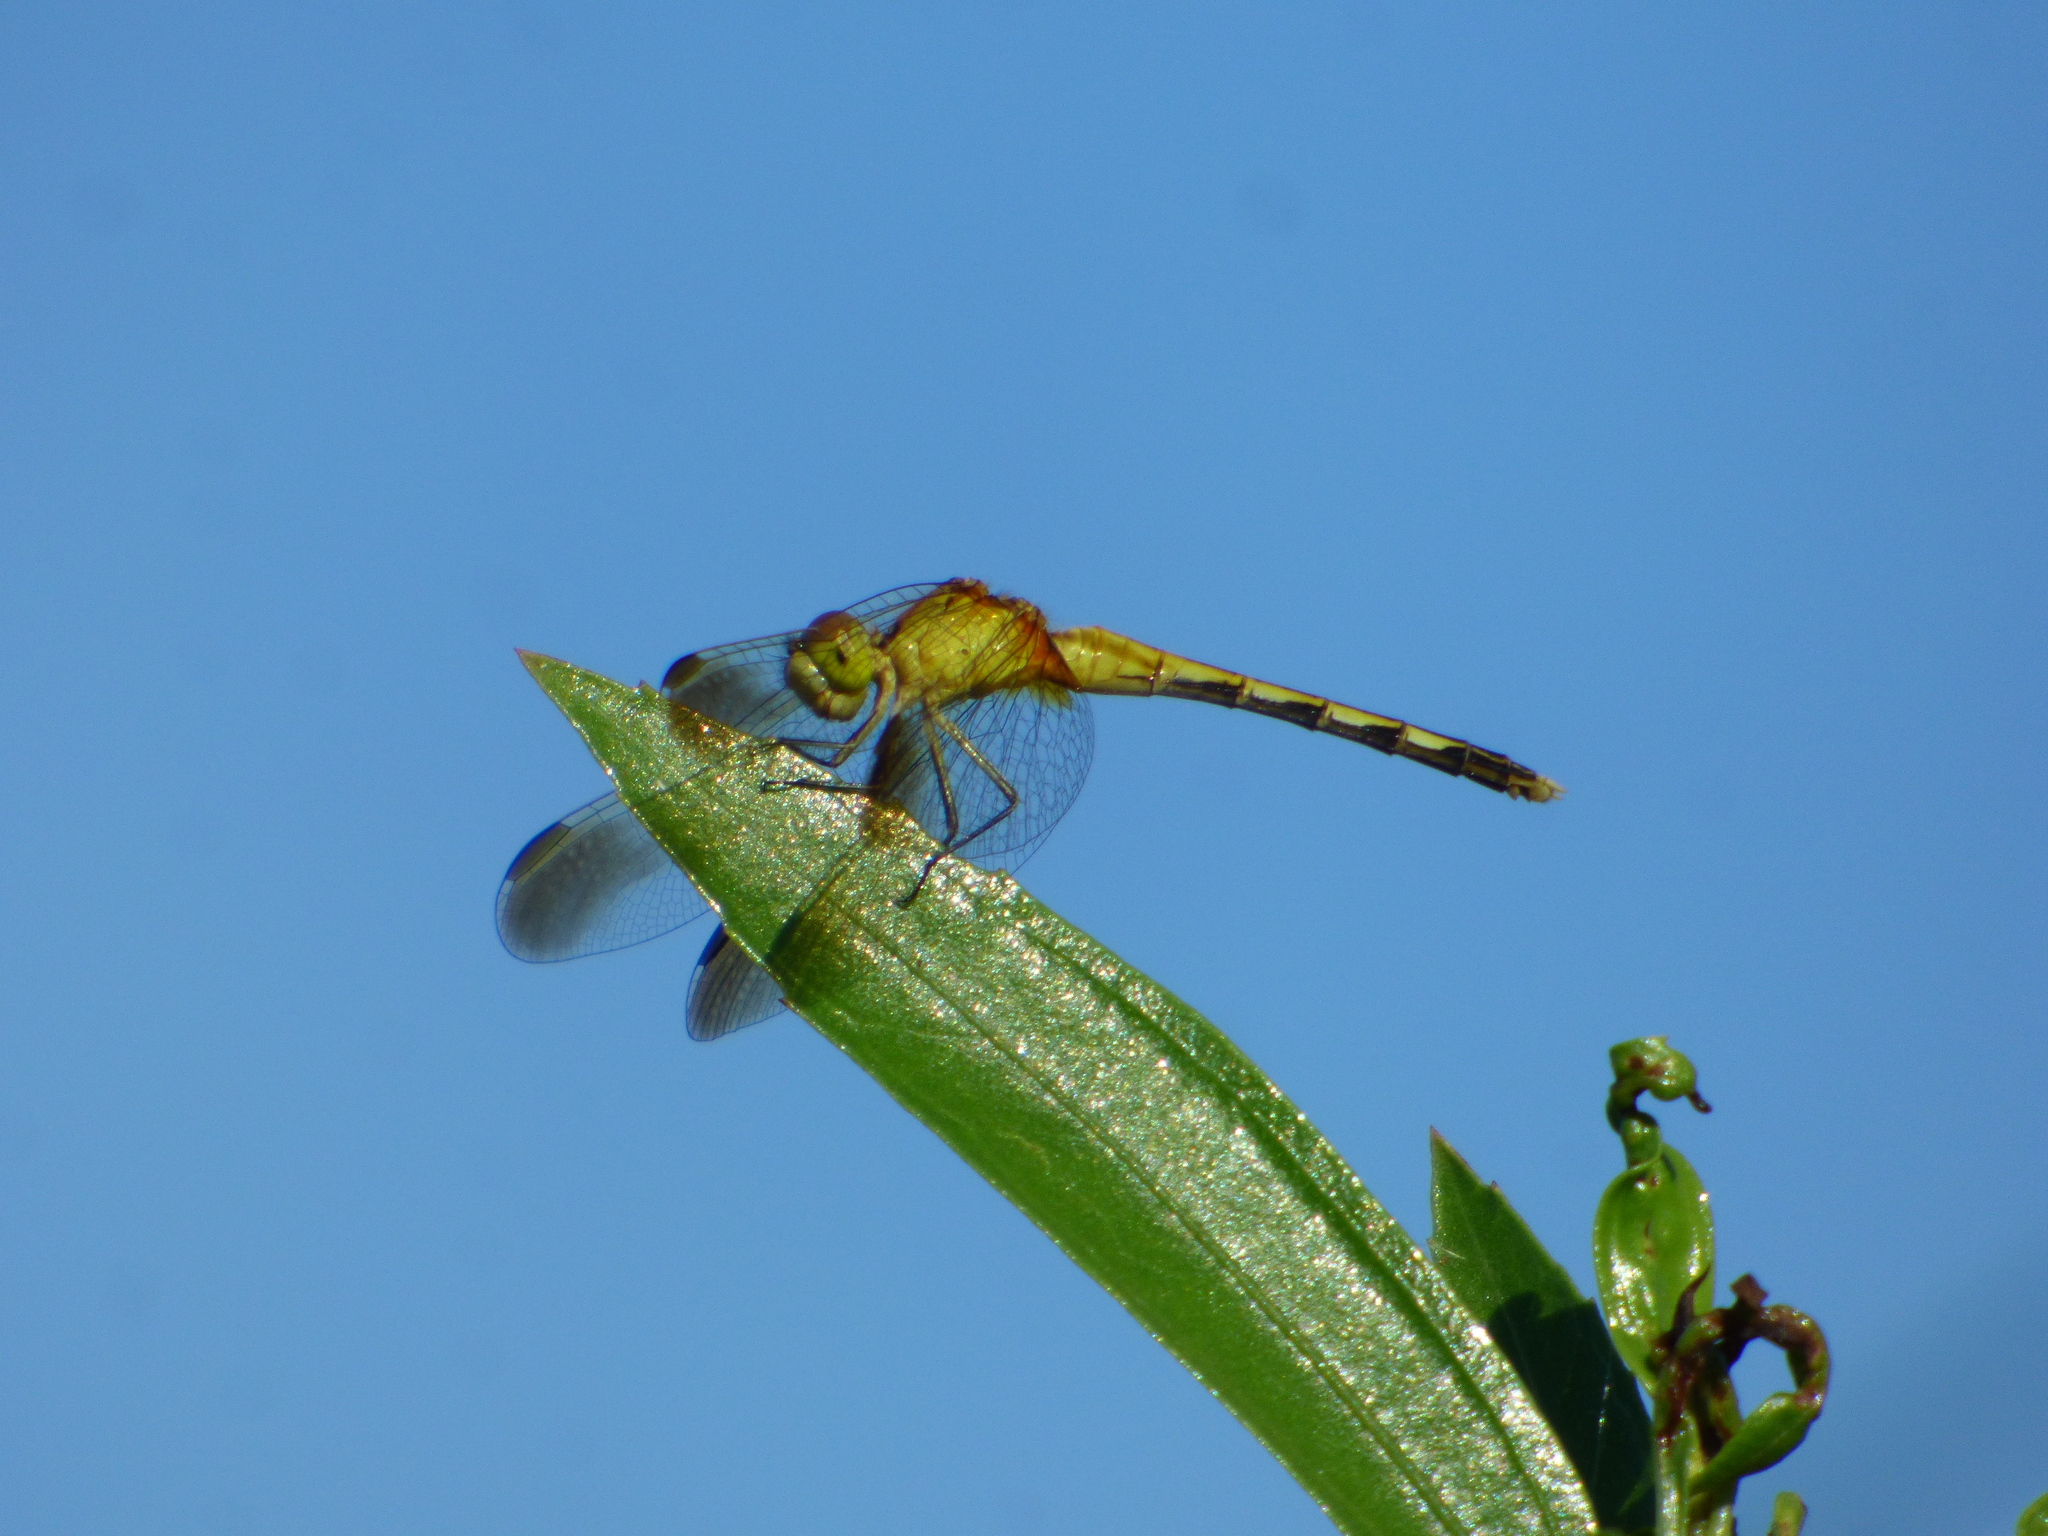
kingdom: Animalia
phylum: Arthropoda
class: Insecta
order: Odonata
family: Libellulidae
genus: Erythrodiplax
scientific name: Erythrodiplax nigricans
